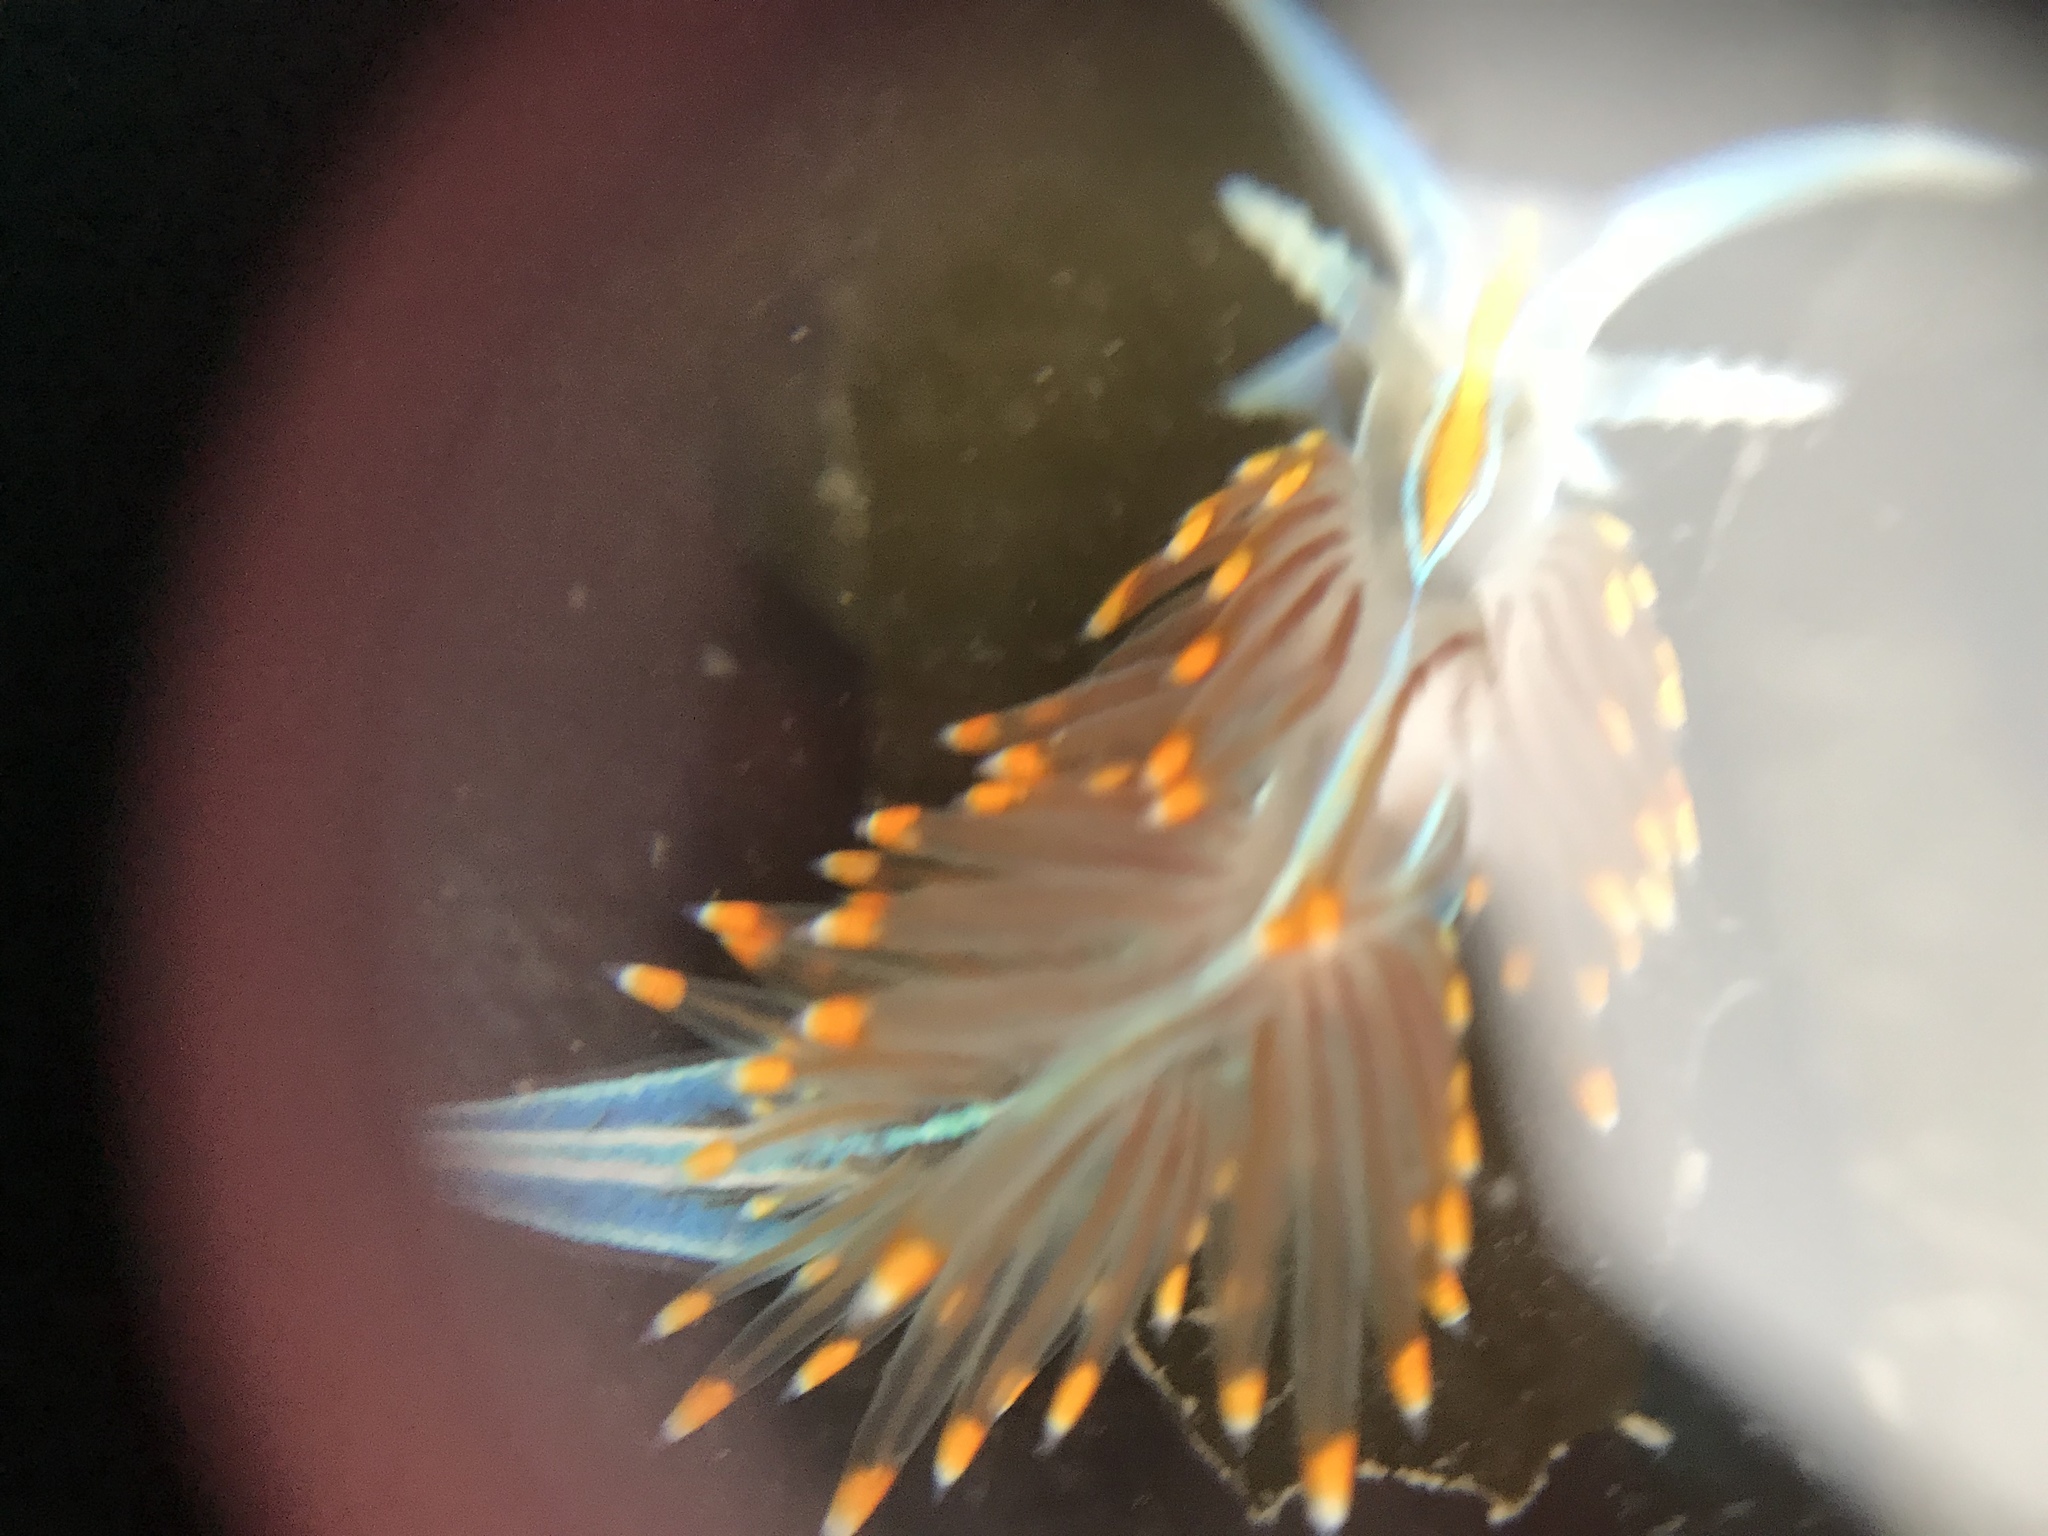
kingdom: Animalia
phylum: Mollusca
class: Gastropoda
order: Nudibranchia
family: Myrrhinidae
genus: Hermissenda
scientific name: Hermissenda opalescens
